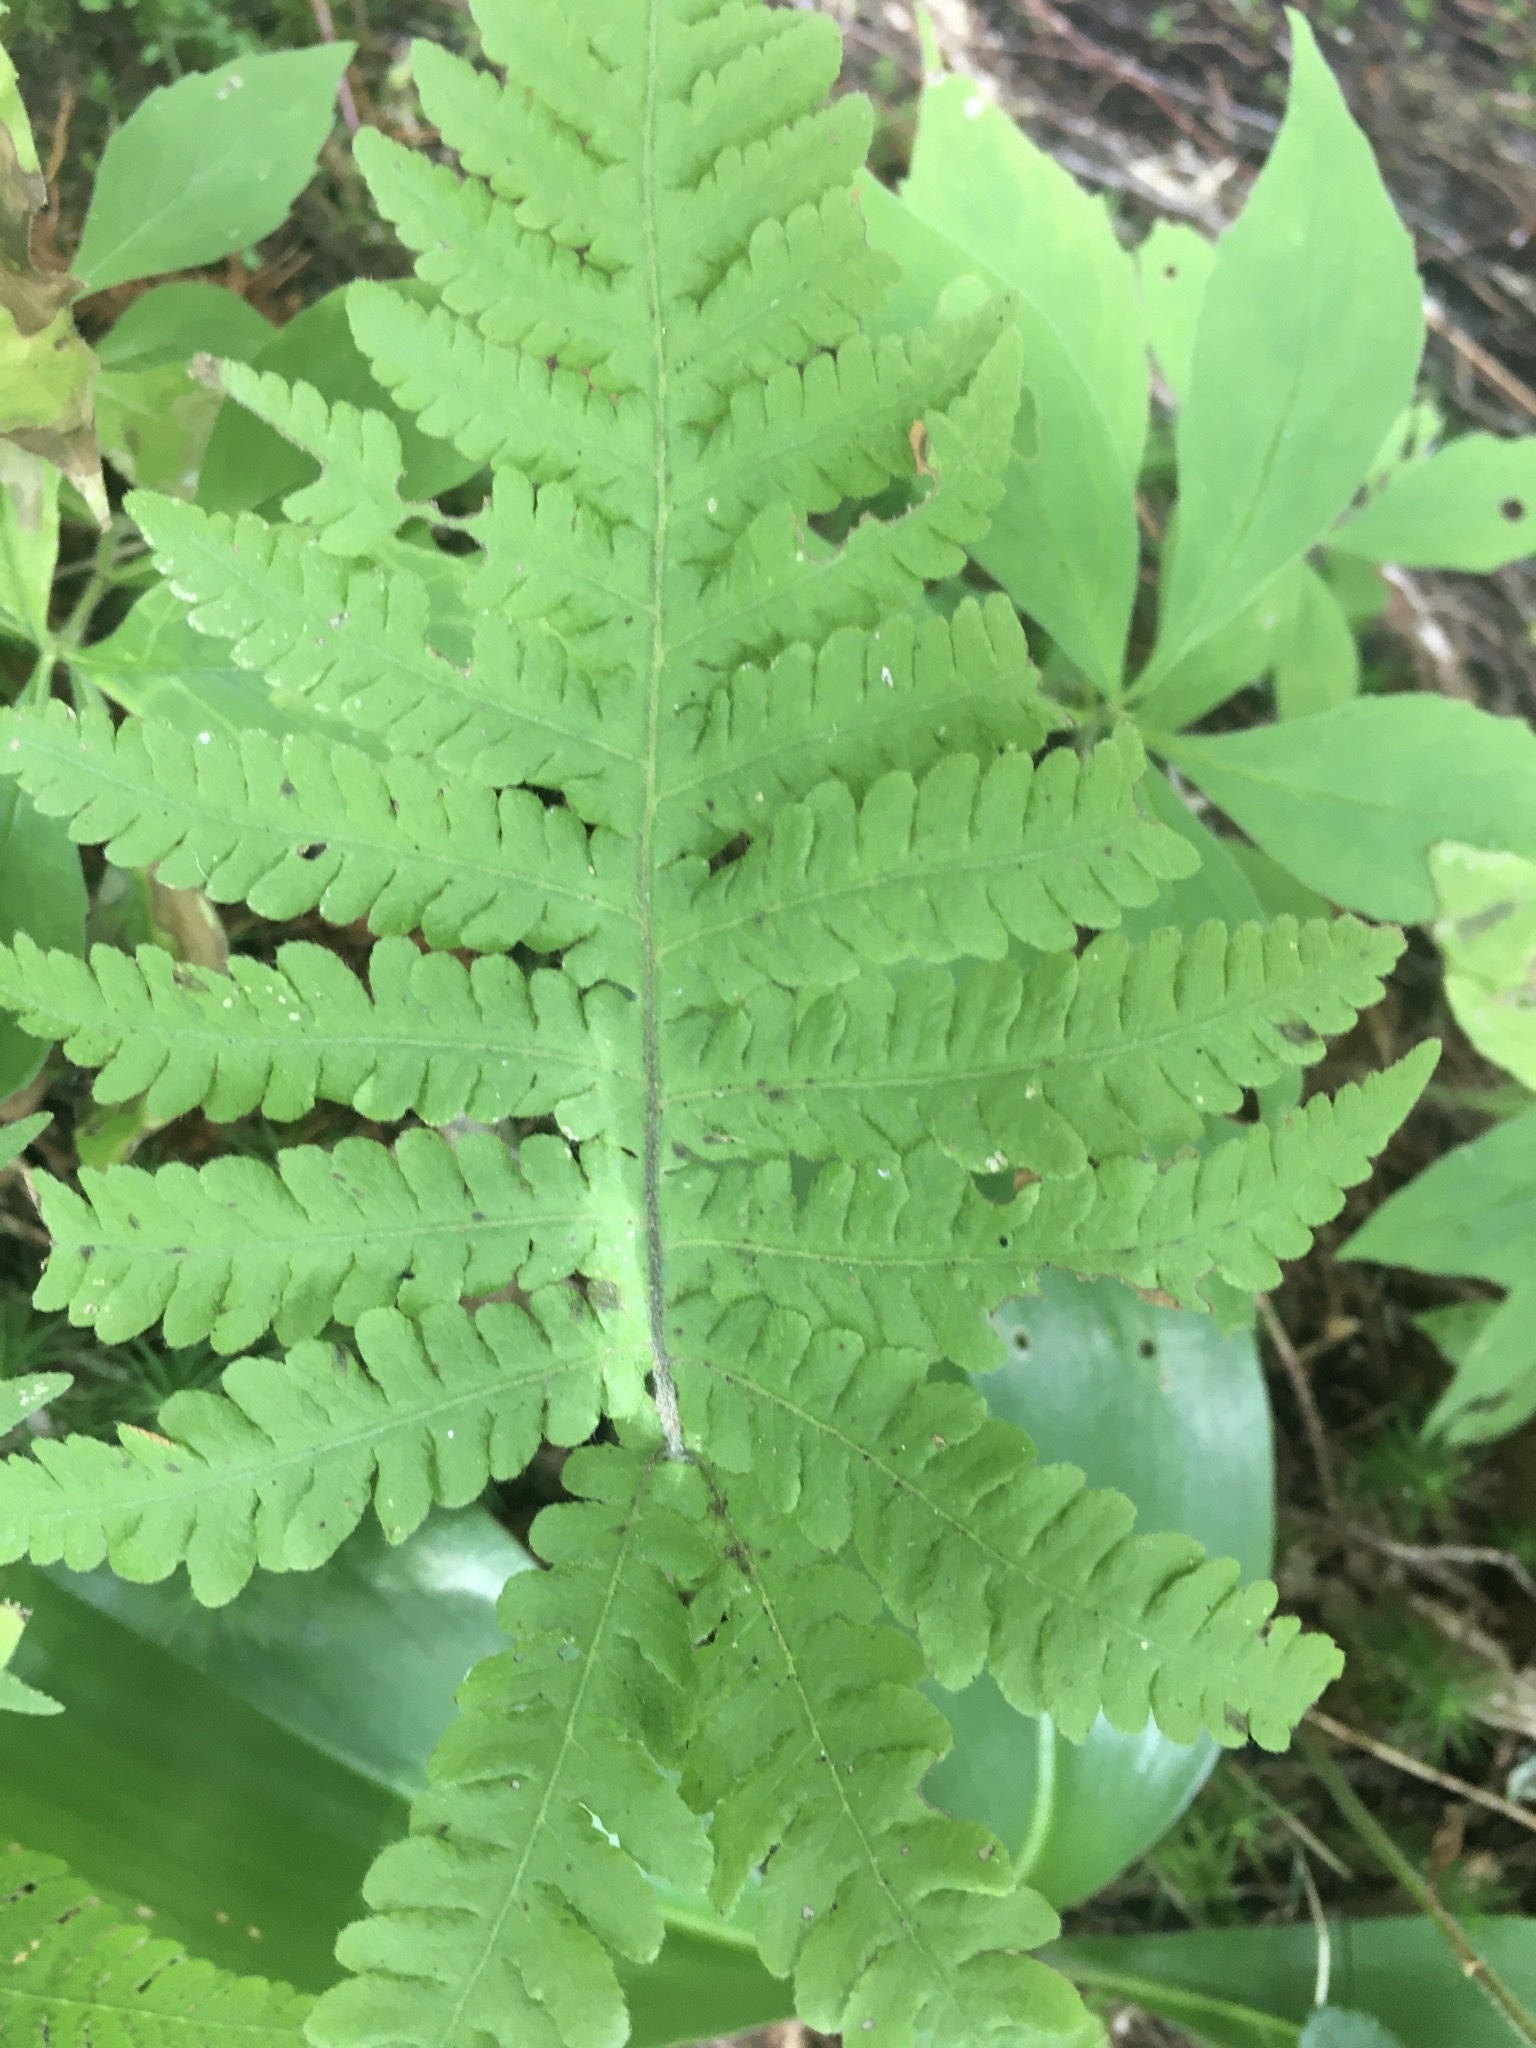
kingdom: Plantae
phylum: Tracheophyta
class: Polypodiopsida
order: Polypodiales
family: Thelypteridaceae
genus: Phegopteris
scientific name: Phegopteris connectilis
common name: Beech fern
